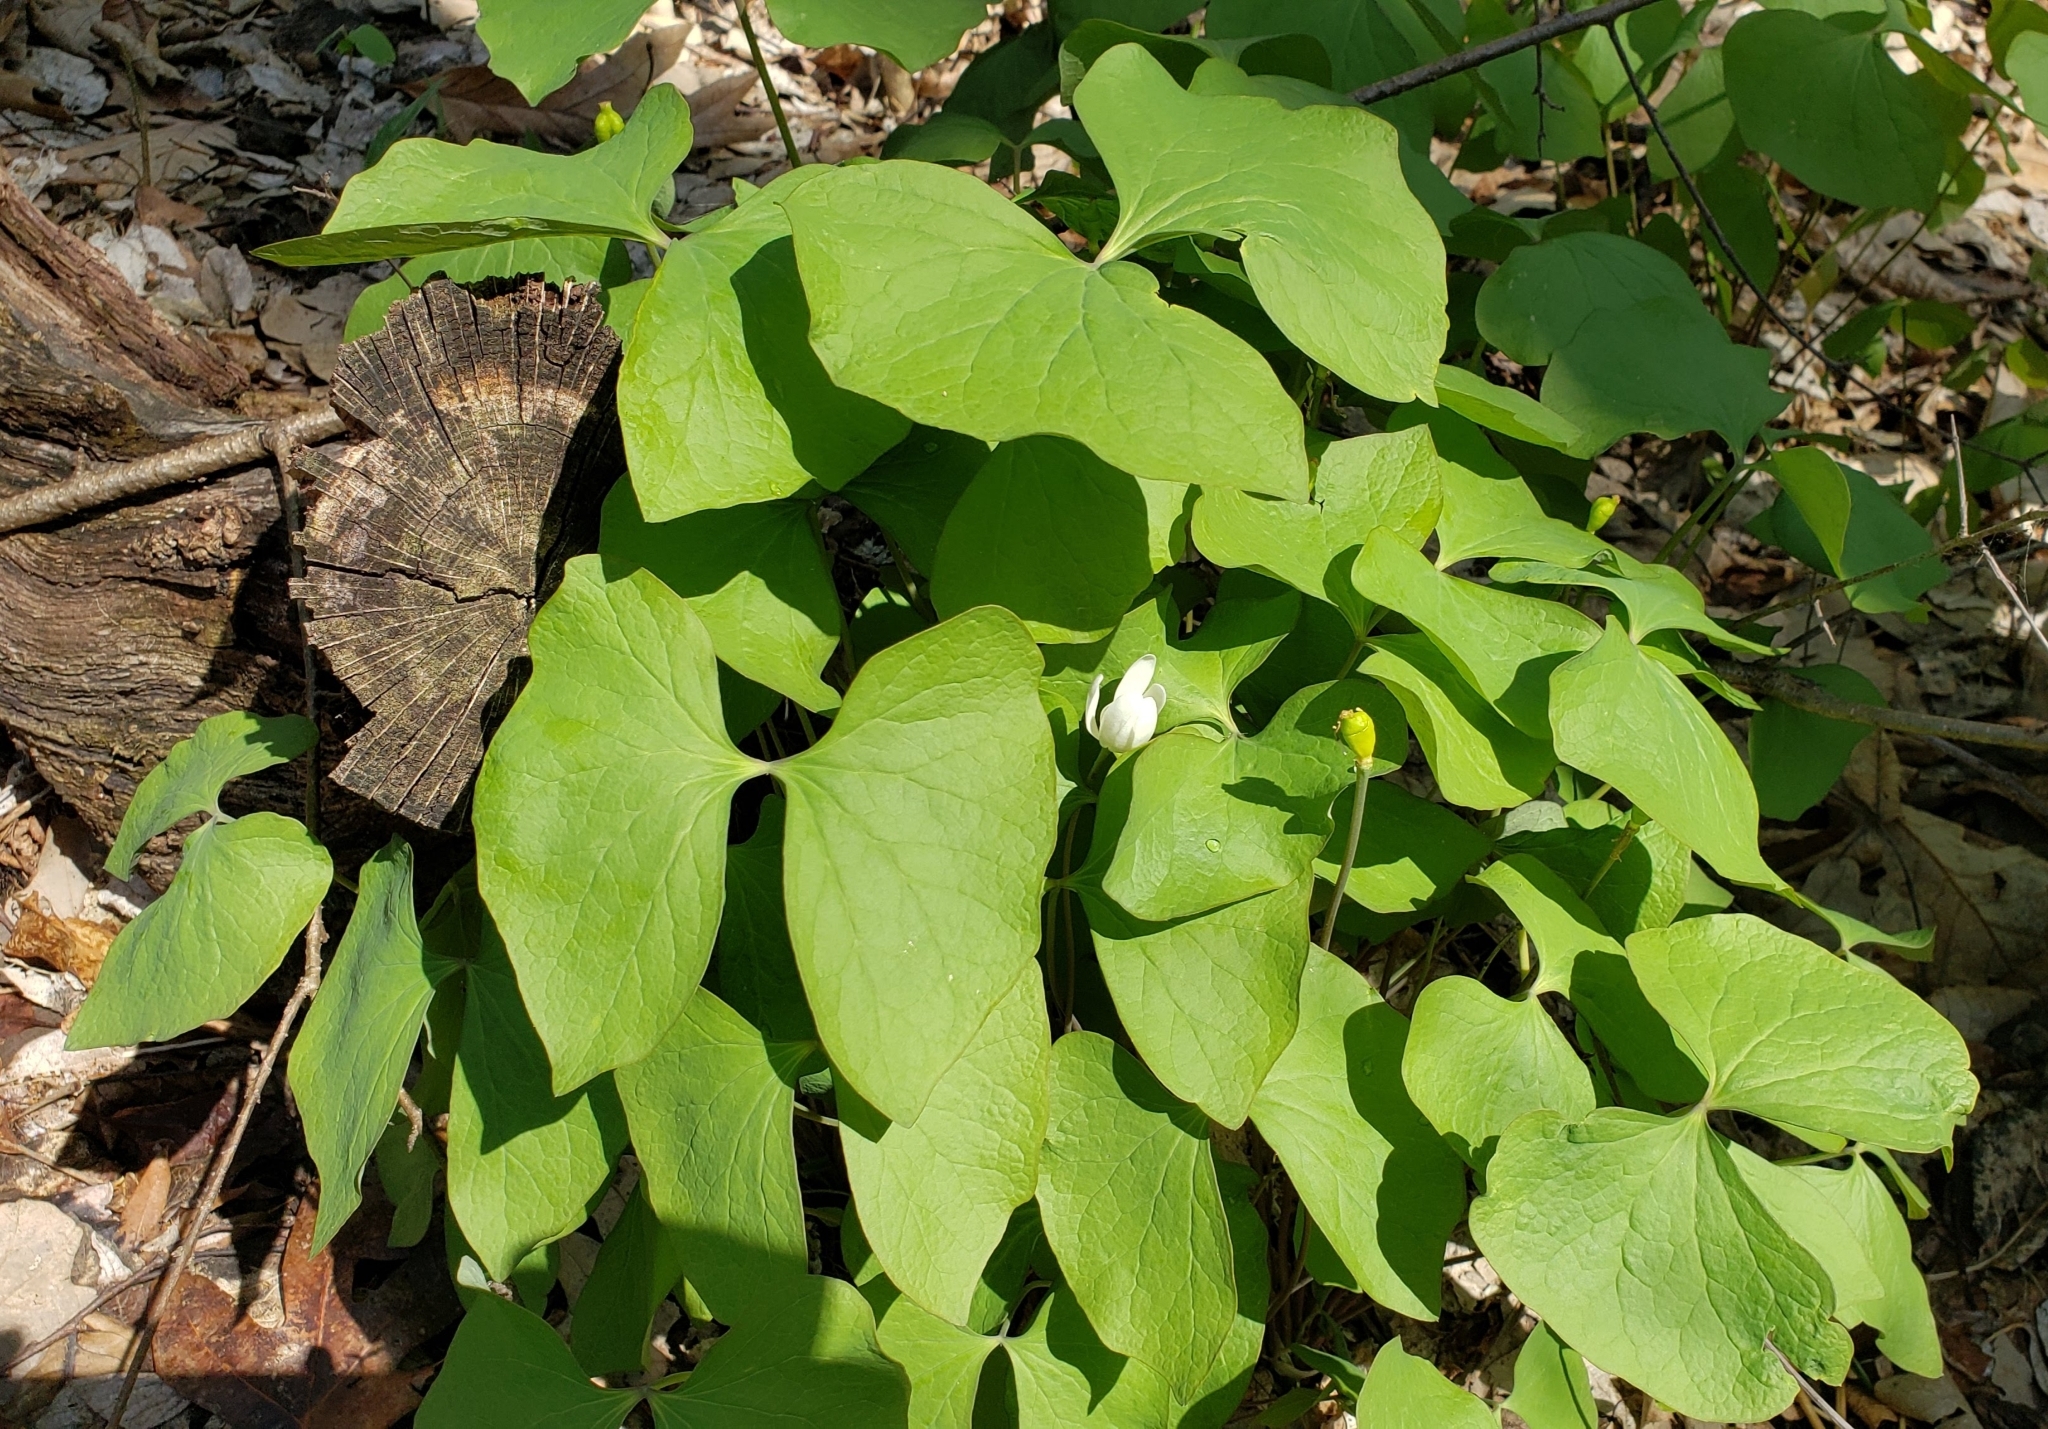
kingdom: Plantae
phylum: Tracheophyta
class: Magnoliopsida
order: Ranunculales
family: Berberidaceae
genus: Jeffersonia
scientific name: Jeffersonia diphylla
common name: Rheumatism-root
